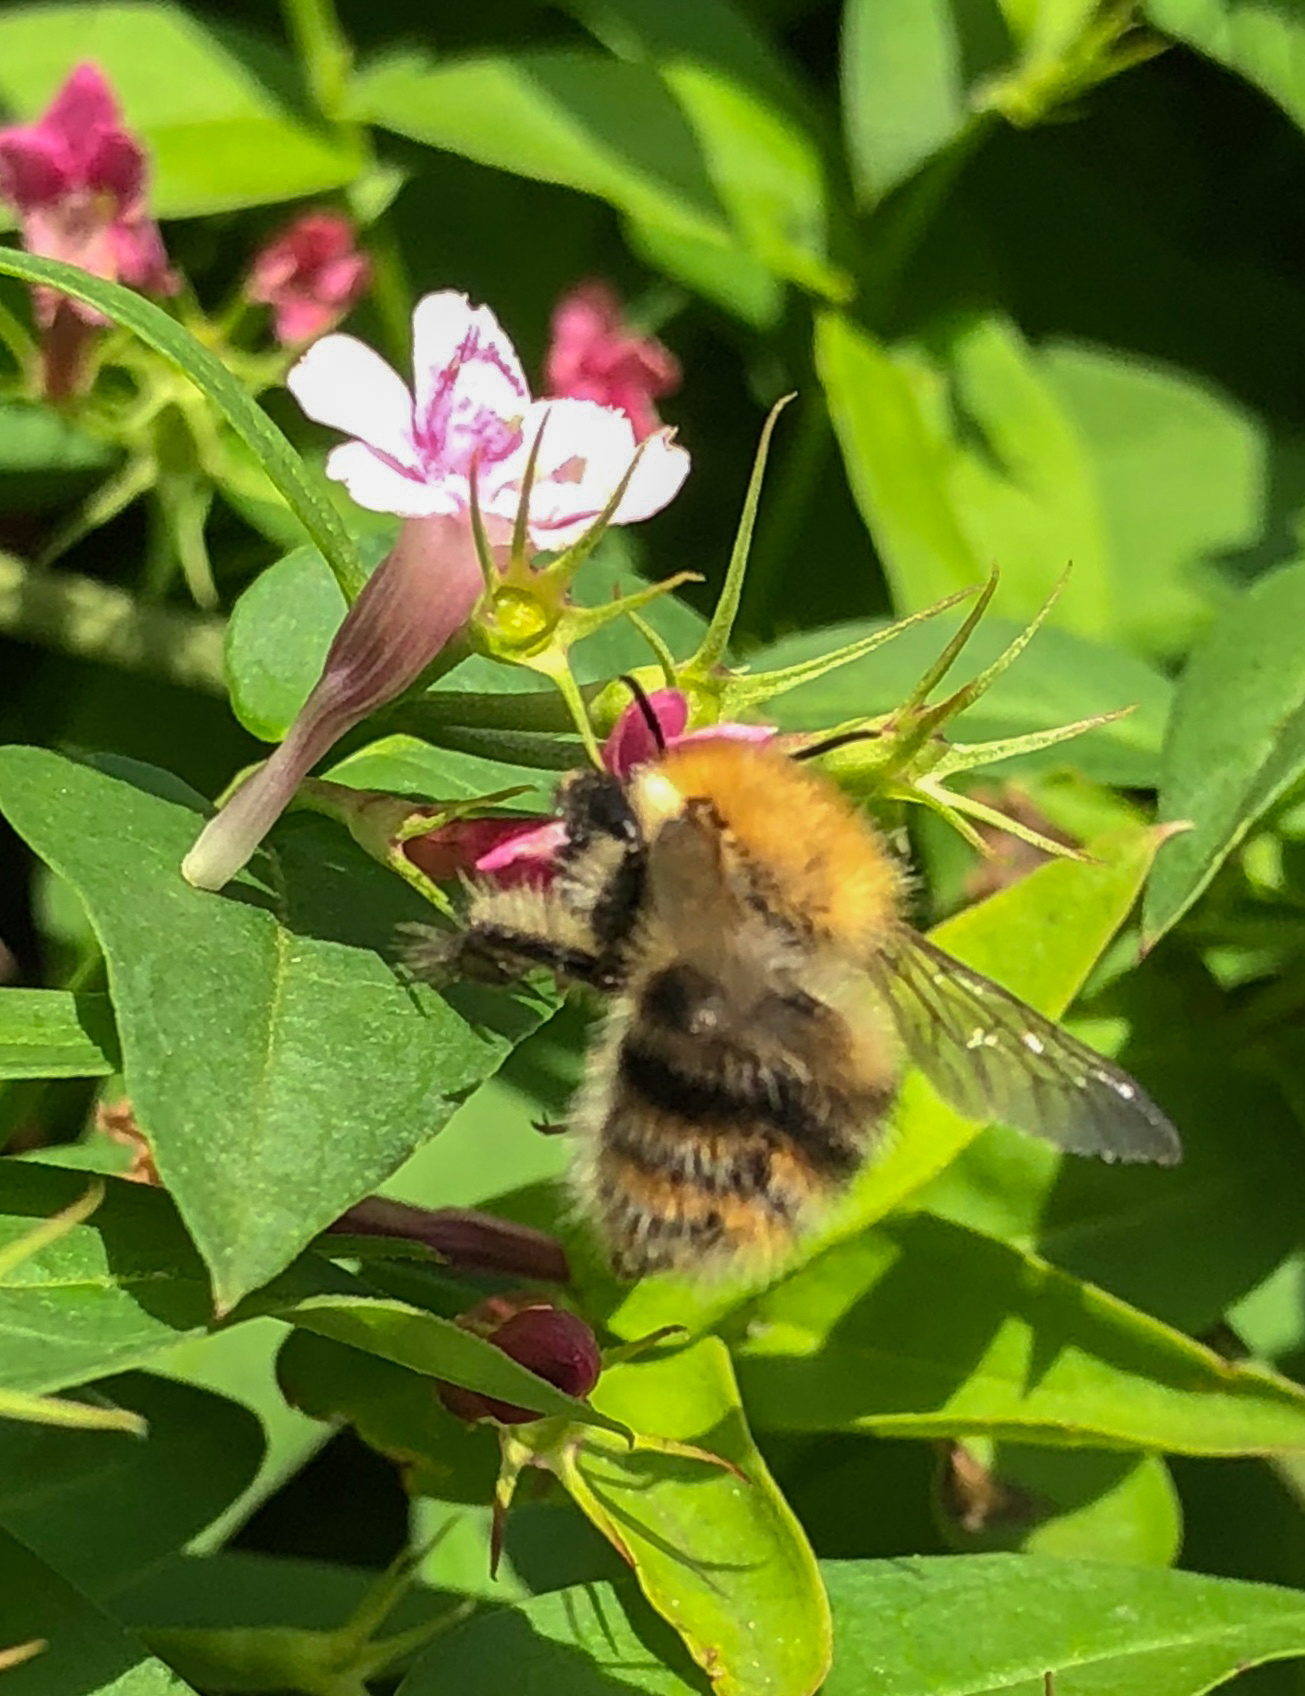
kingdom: Animalia
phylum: Arthropoda
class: Insecta
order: Hymenoptera
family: Apidae
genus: Bombus
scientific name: Bombus pascuorum
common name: Common carder bee
